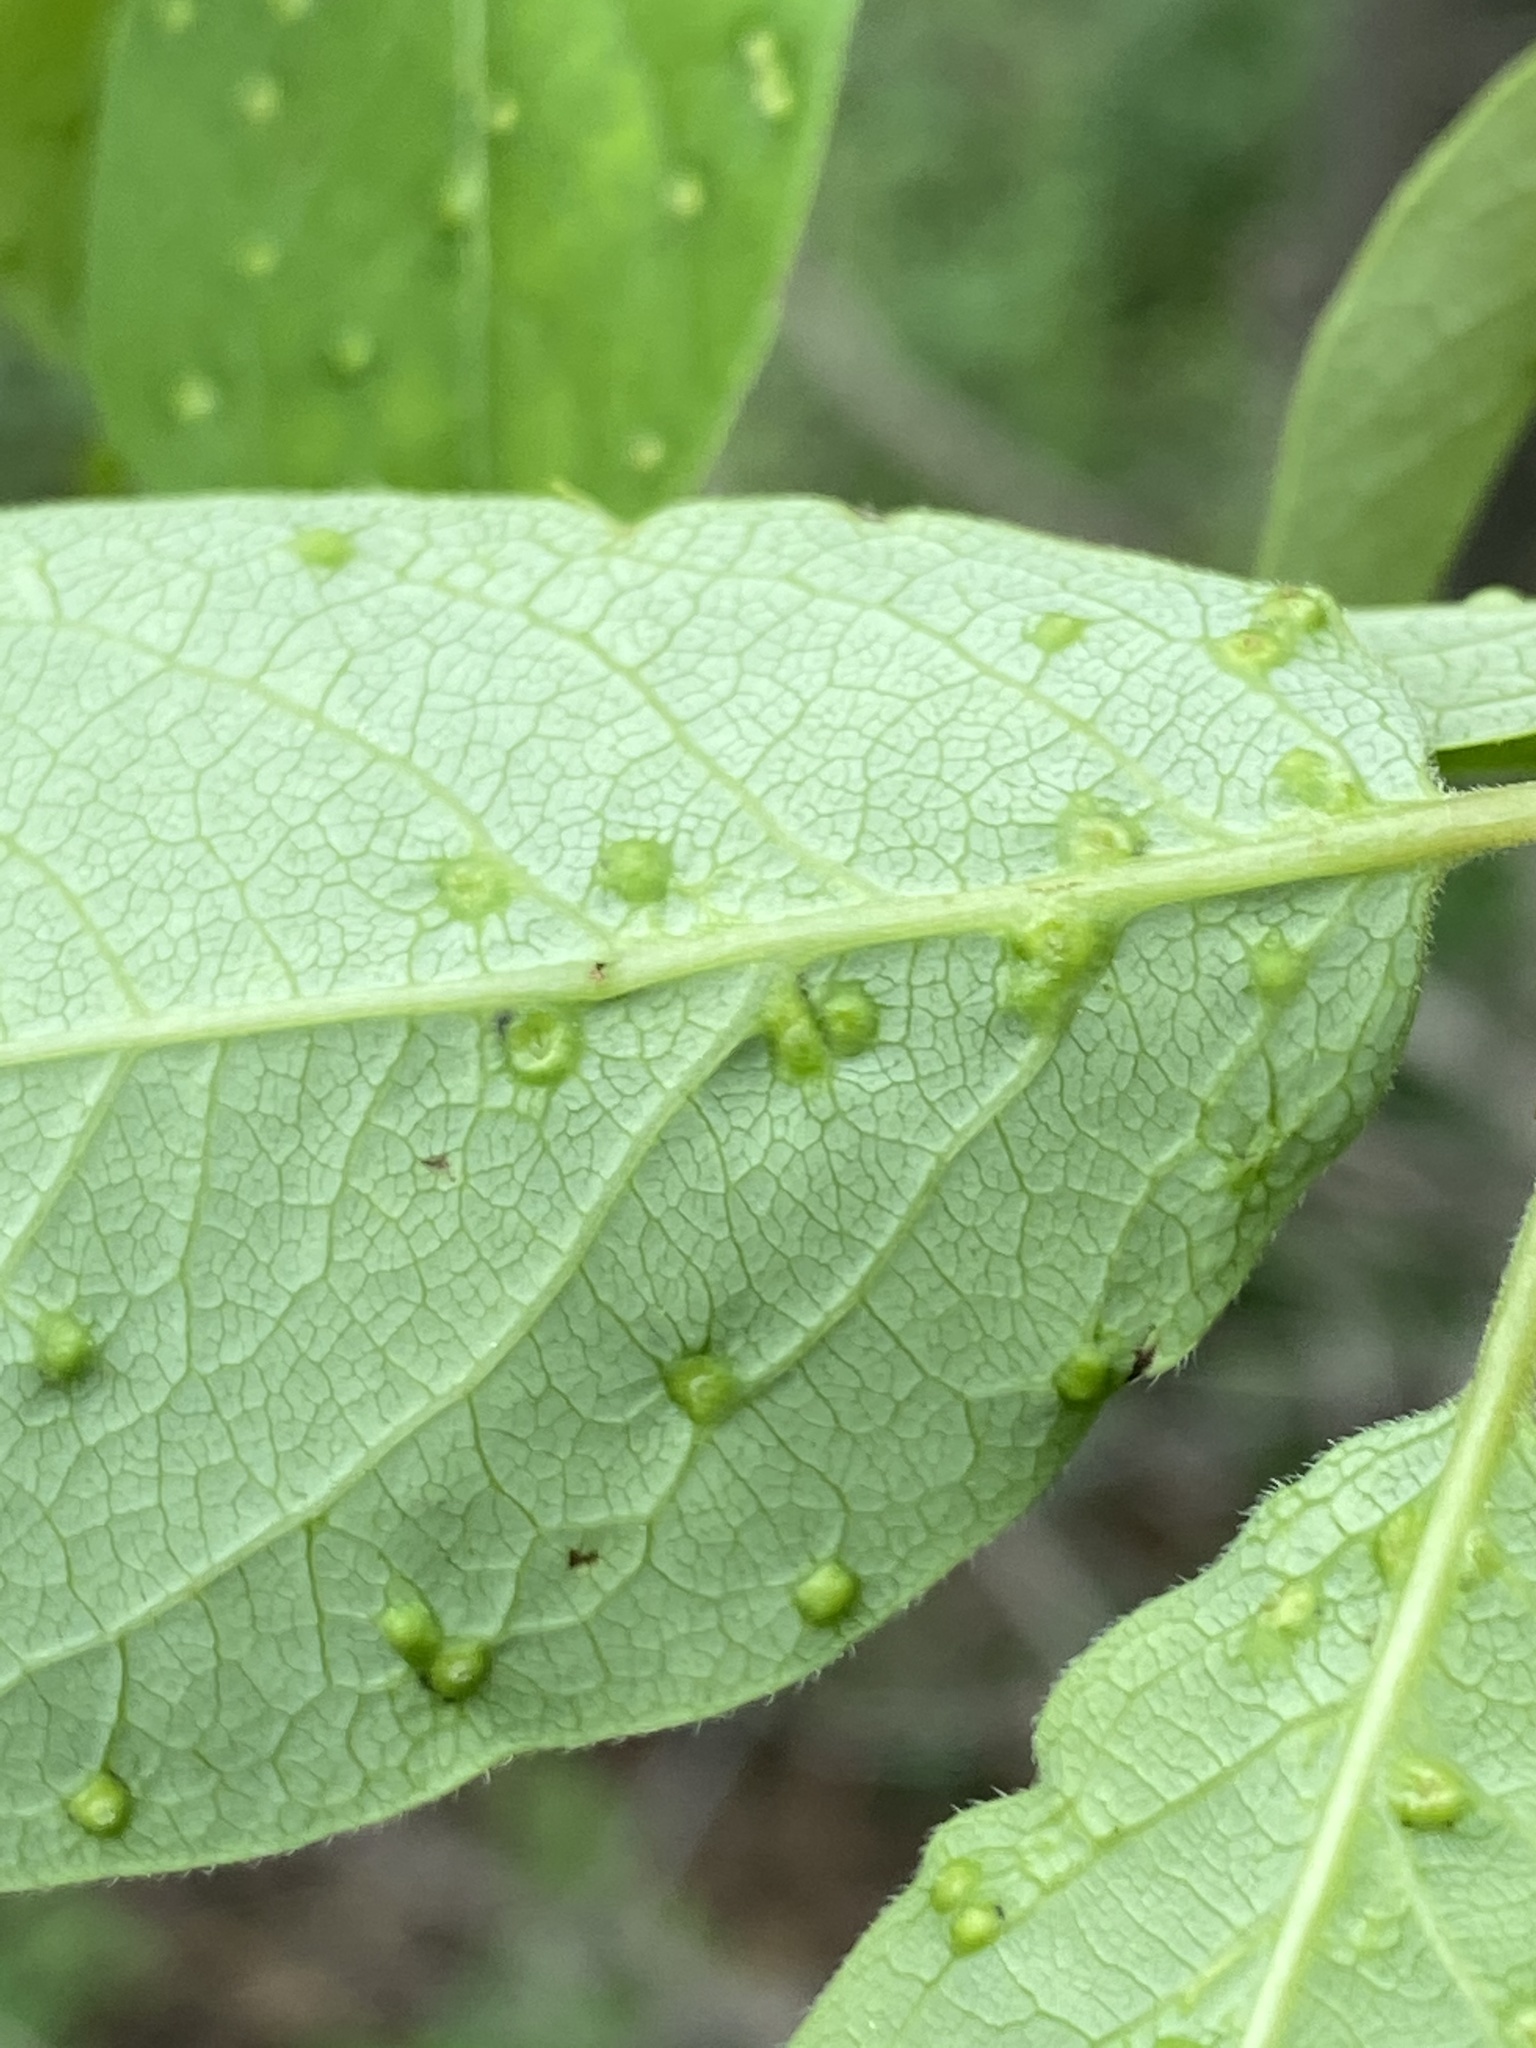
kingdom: Animalia
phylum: Arthropoda
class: Arachnida
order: Trombidiformes
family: Eriophyidae
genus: Aceria
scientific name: Aceria
